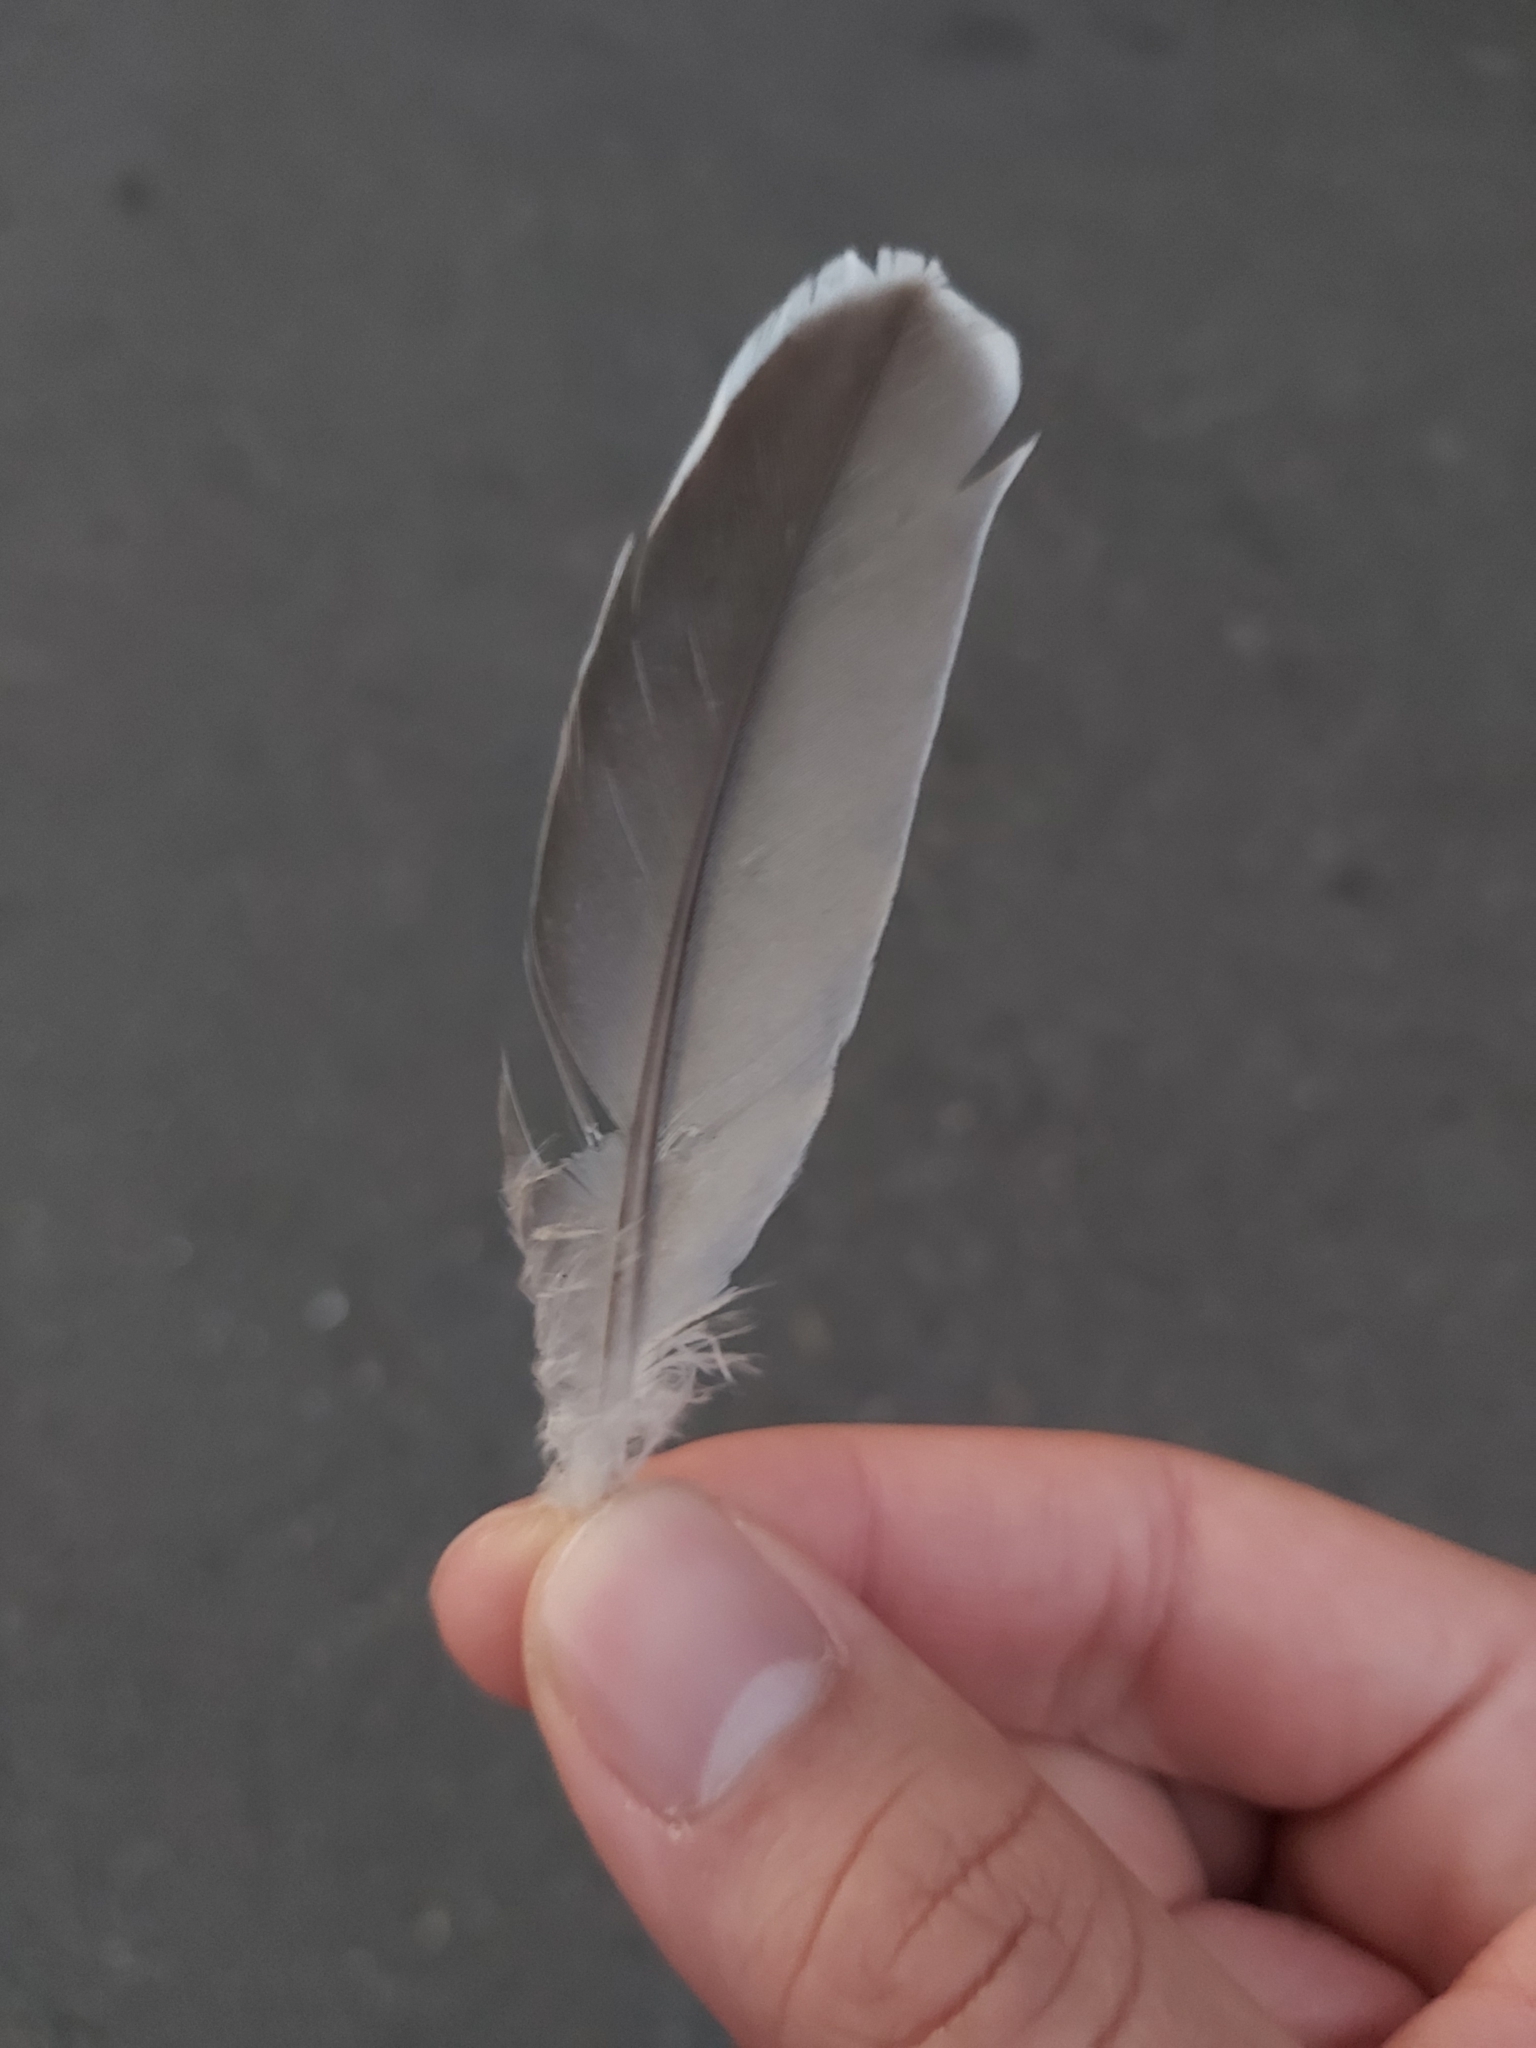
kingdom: Animalia
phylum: Chordata
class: Aves
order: Columbiformes
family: Columbidae
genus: Ocyphaps
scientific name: Ocyphaps lophotes
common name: Crested pigeon
